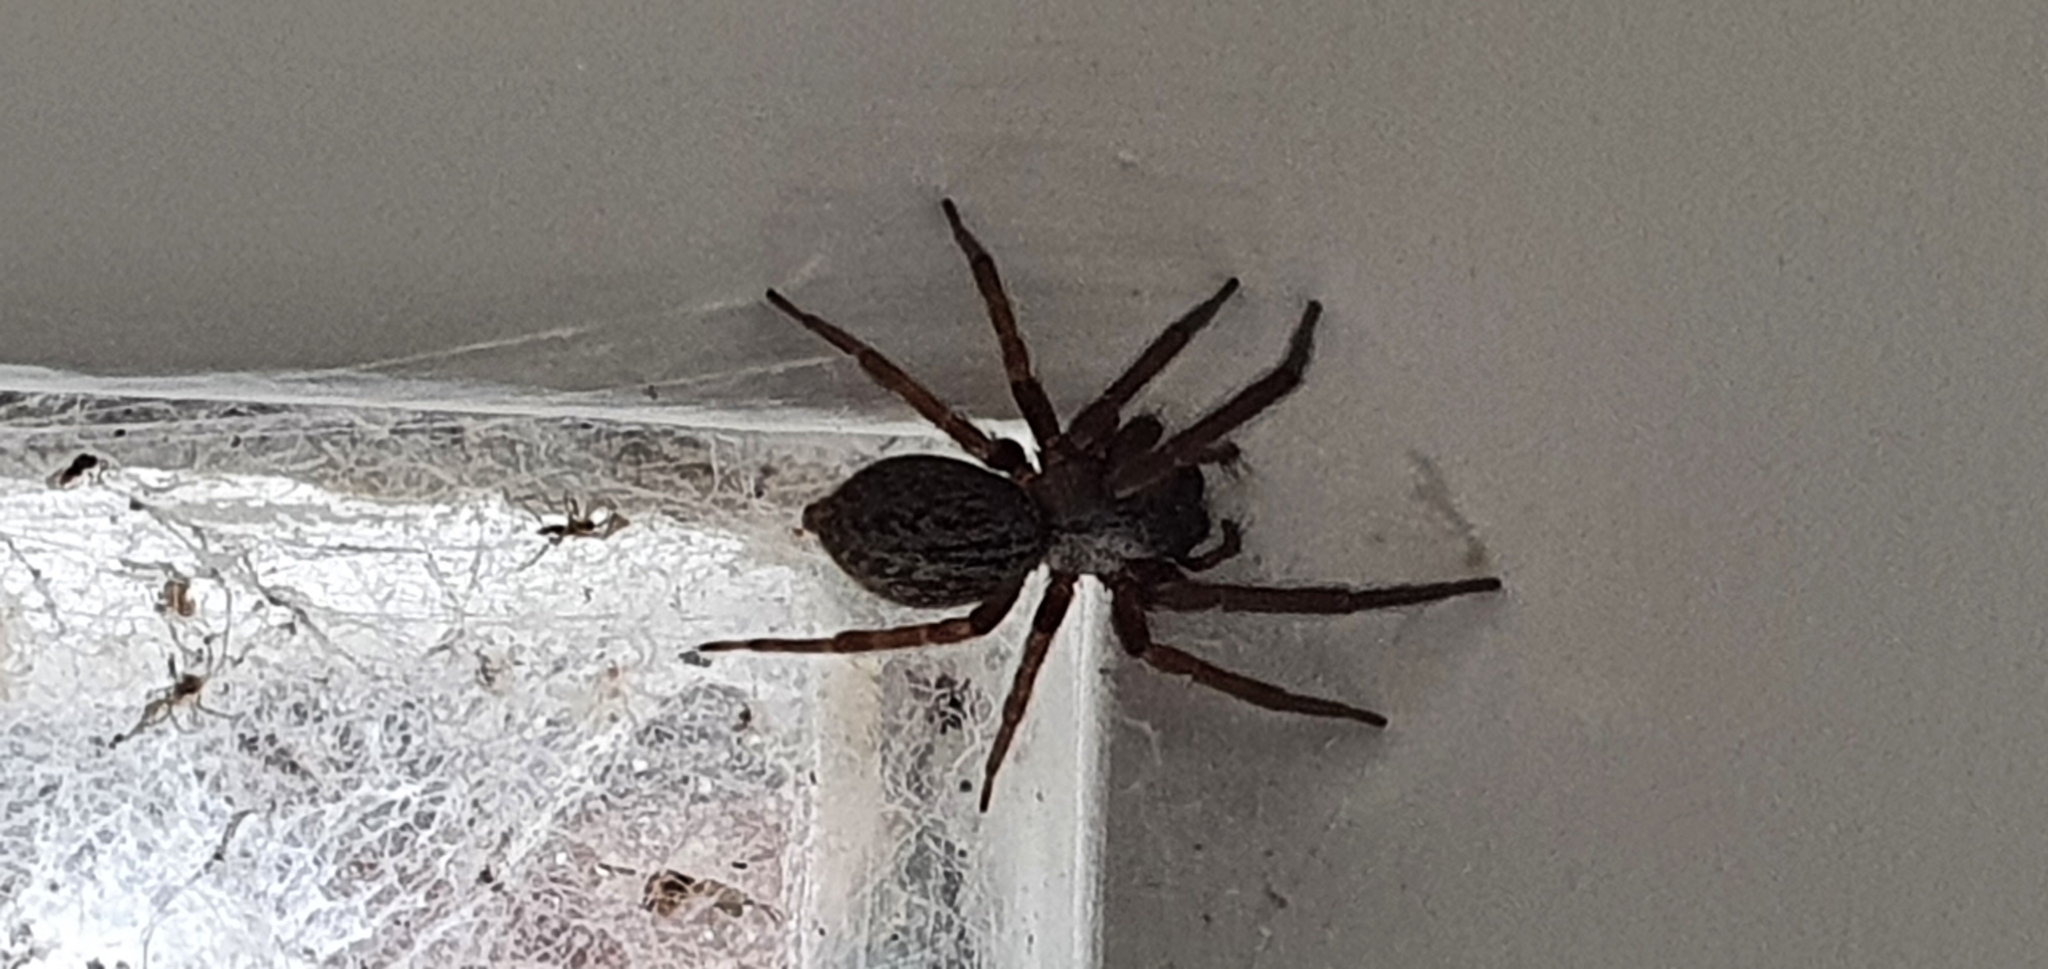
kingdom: Animalia
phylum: Arthropoda
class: Arachnida
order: Araneae
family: Desidae
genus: Badumna
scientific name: Badumna longinqua
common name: Gray house spider
